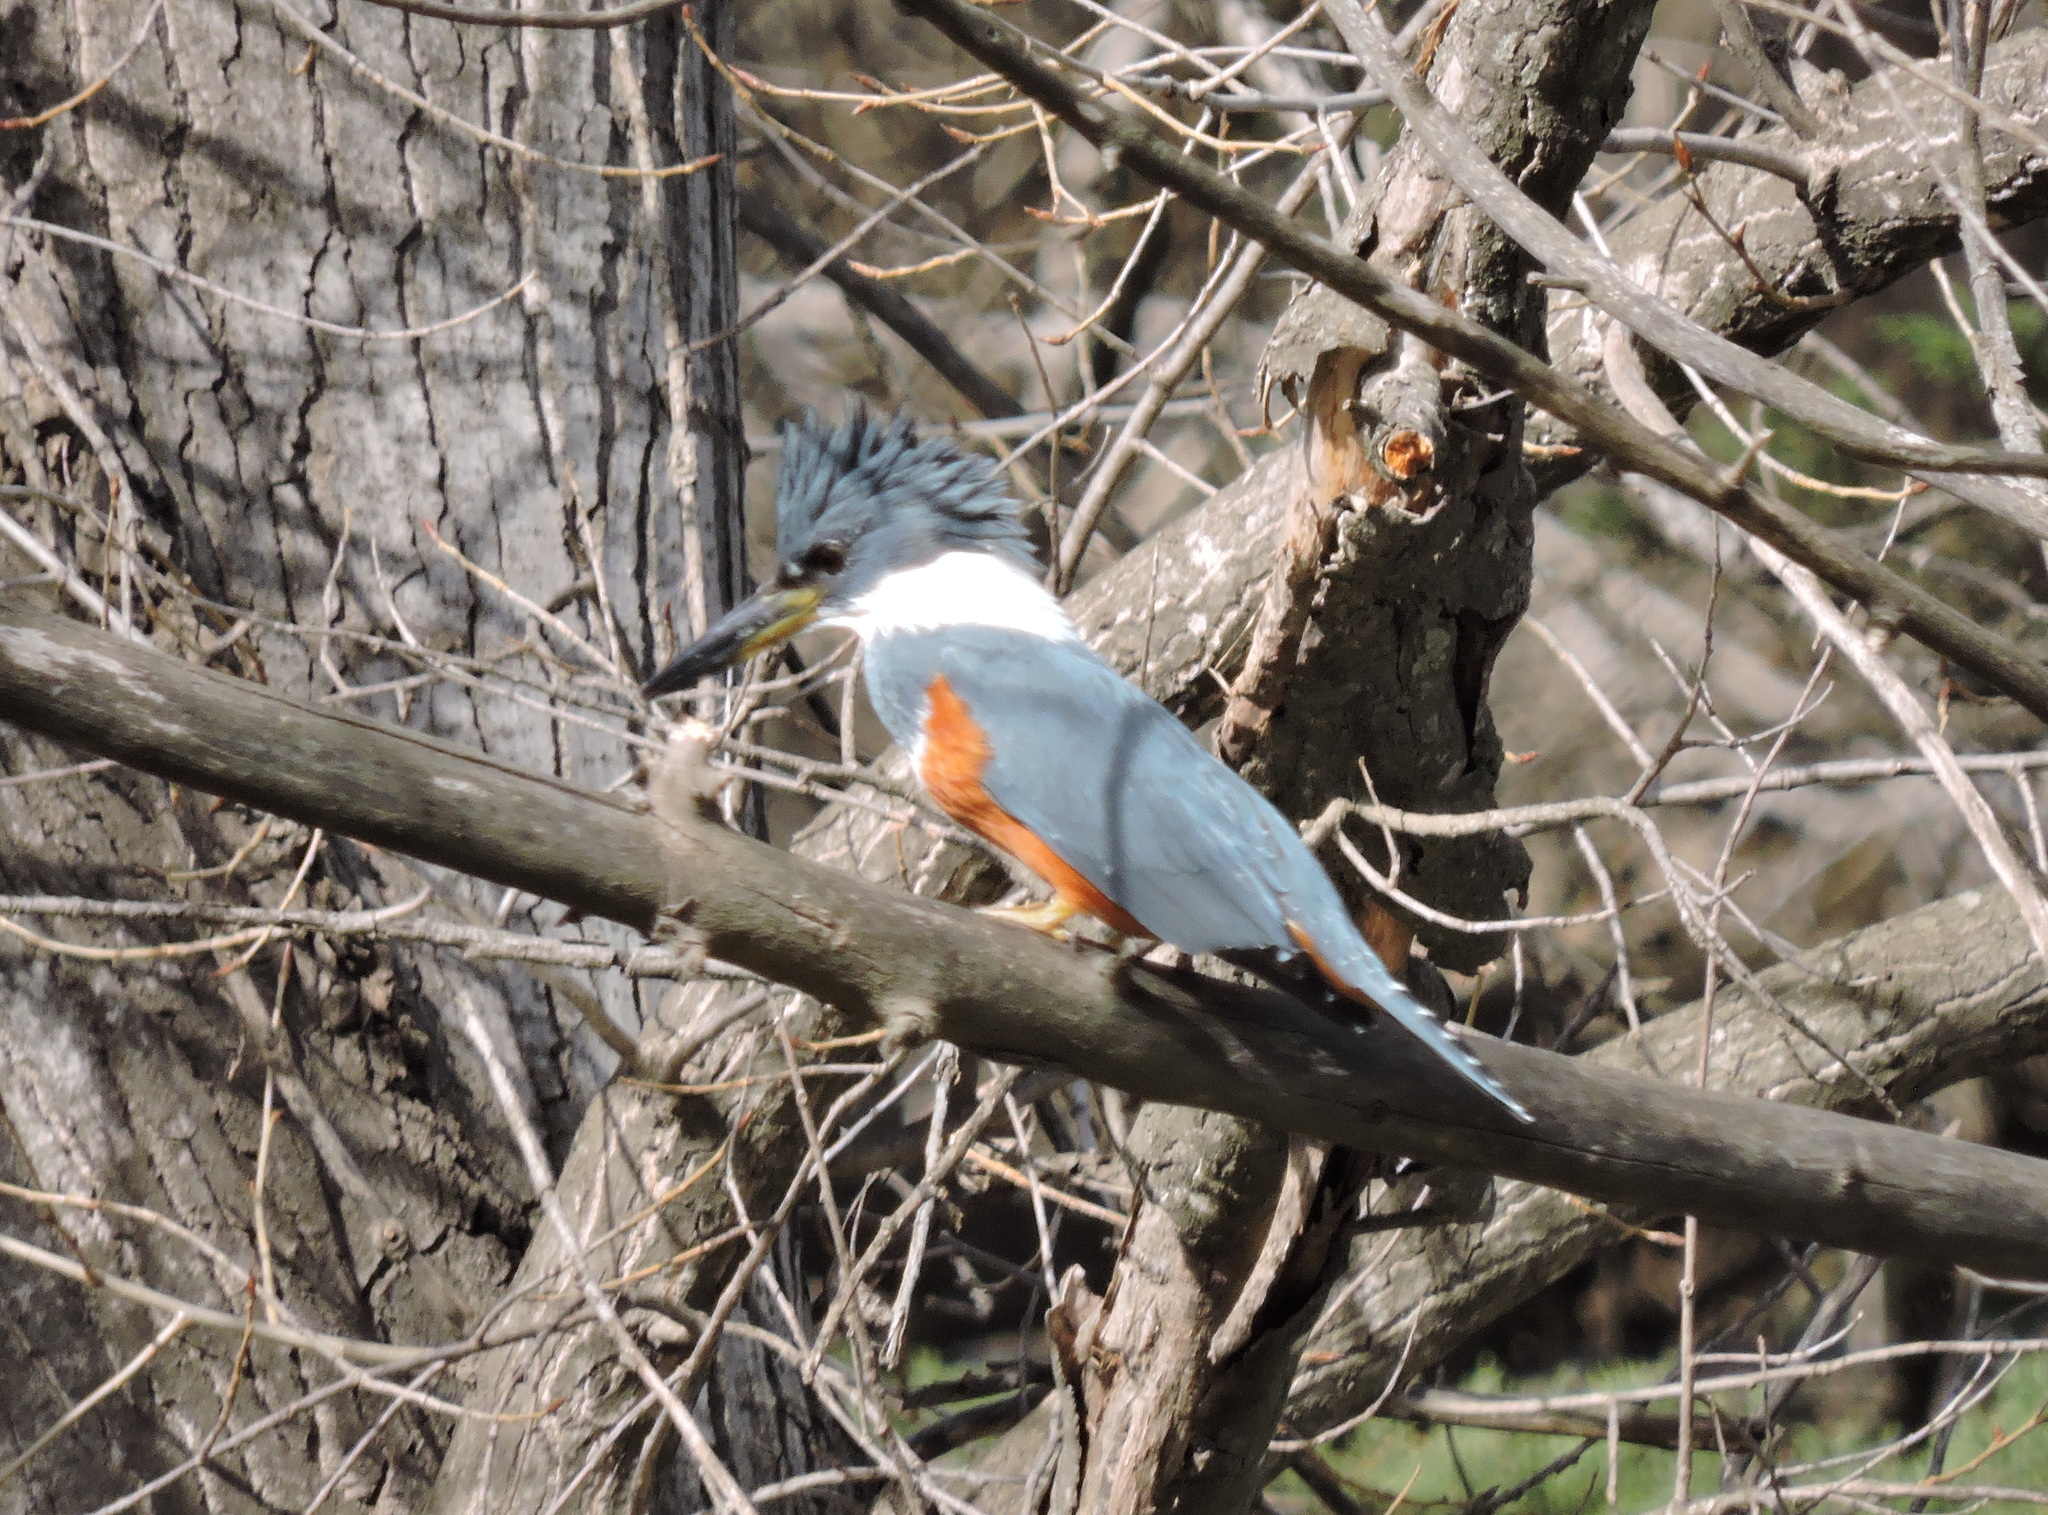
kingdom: Animalia
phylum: Chordata
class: Aves
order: Coraciiformes
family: Alcedinidae
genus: Megaceryle
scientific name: Megaceryle torquata
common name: Ringed kingfisher
